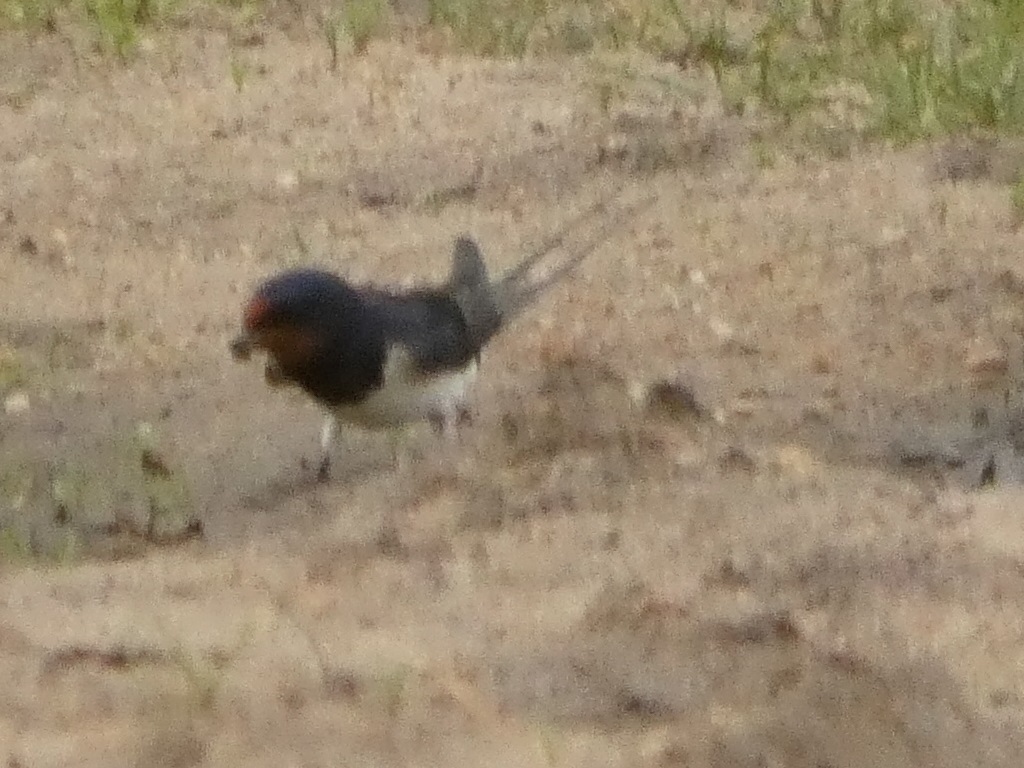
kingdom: Animalia
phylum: Chordata
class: Aves
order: Passeriformes
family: Hirundinidae
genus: Hirundo
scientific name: Hirundo rustica
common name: Barn swallow
